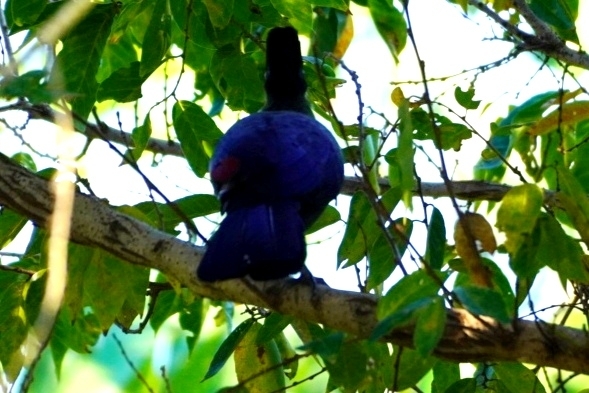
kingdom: Animalia
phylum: Chordata
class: Aves
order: Musophagiformes
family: Musophagidae
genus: Tauraco
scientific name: Tauraco porphyreolophus
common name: Purple-crested turaco
